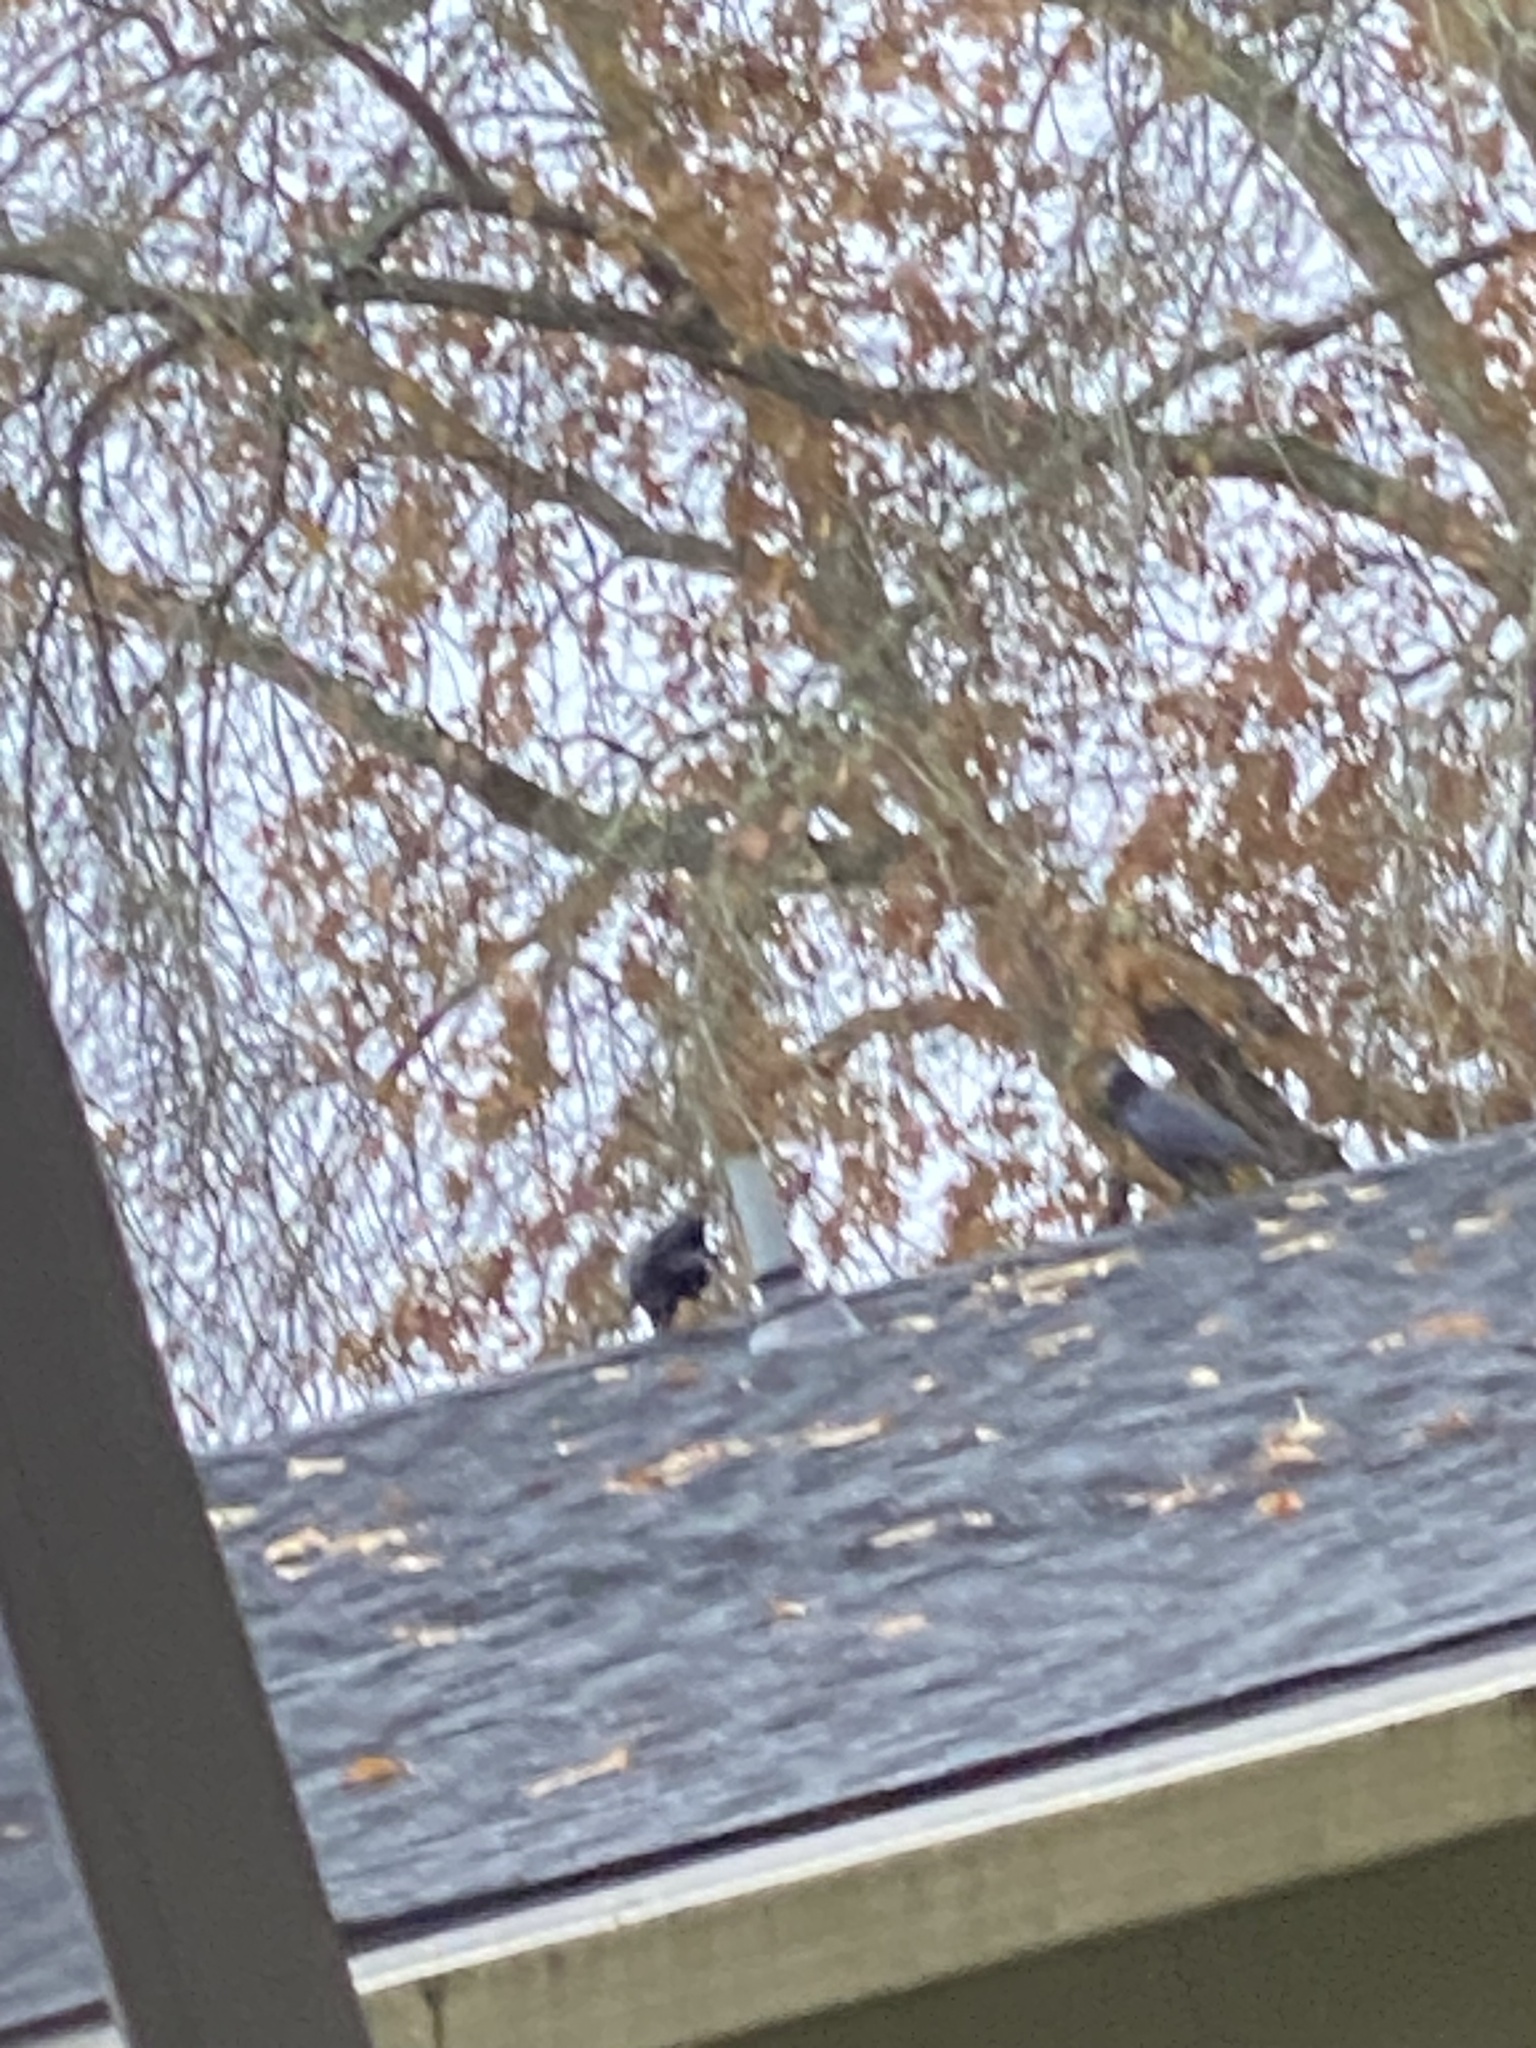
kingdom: Animalia
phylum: Chordata
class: Aves
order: Passeriformes
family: Corvidae
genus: Corvus
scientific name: Corvus brachyrhynchos
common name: American crow
